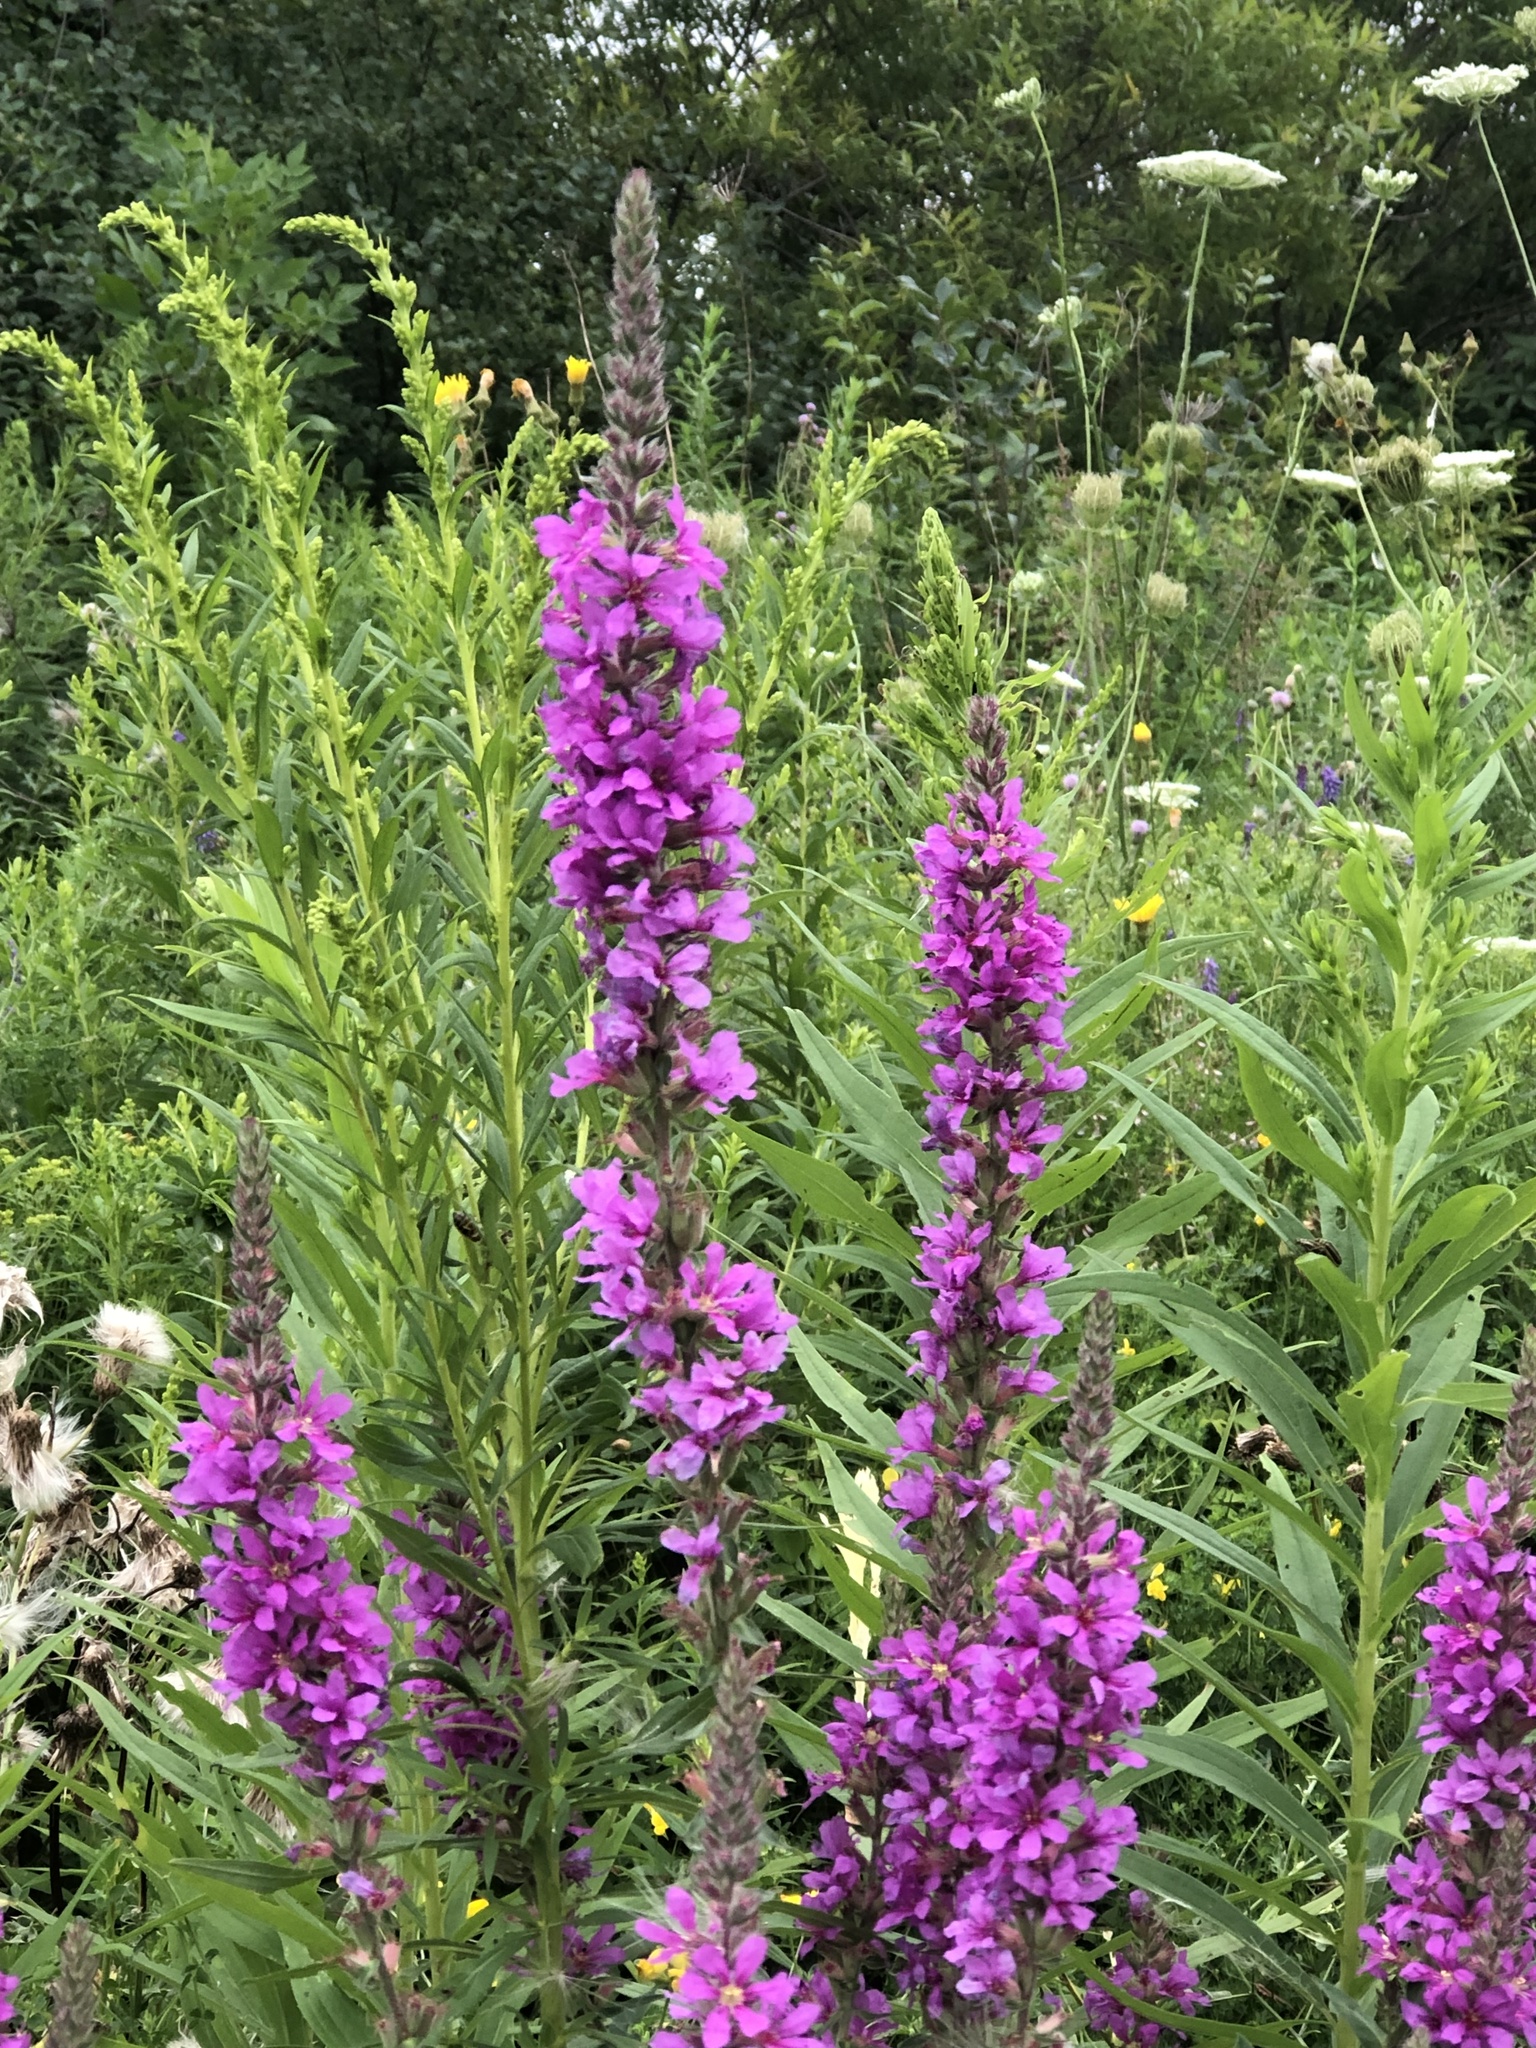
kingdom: Plantae
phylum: Tracheophyta
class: Magnoliopsida
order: Myrtales
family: Lythraceae
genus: Lythrum
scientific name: Lythrum salicaria
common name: Purple loosestrife
